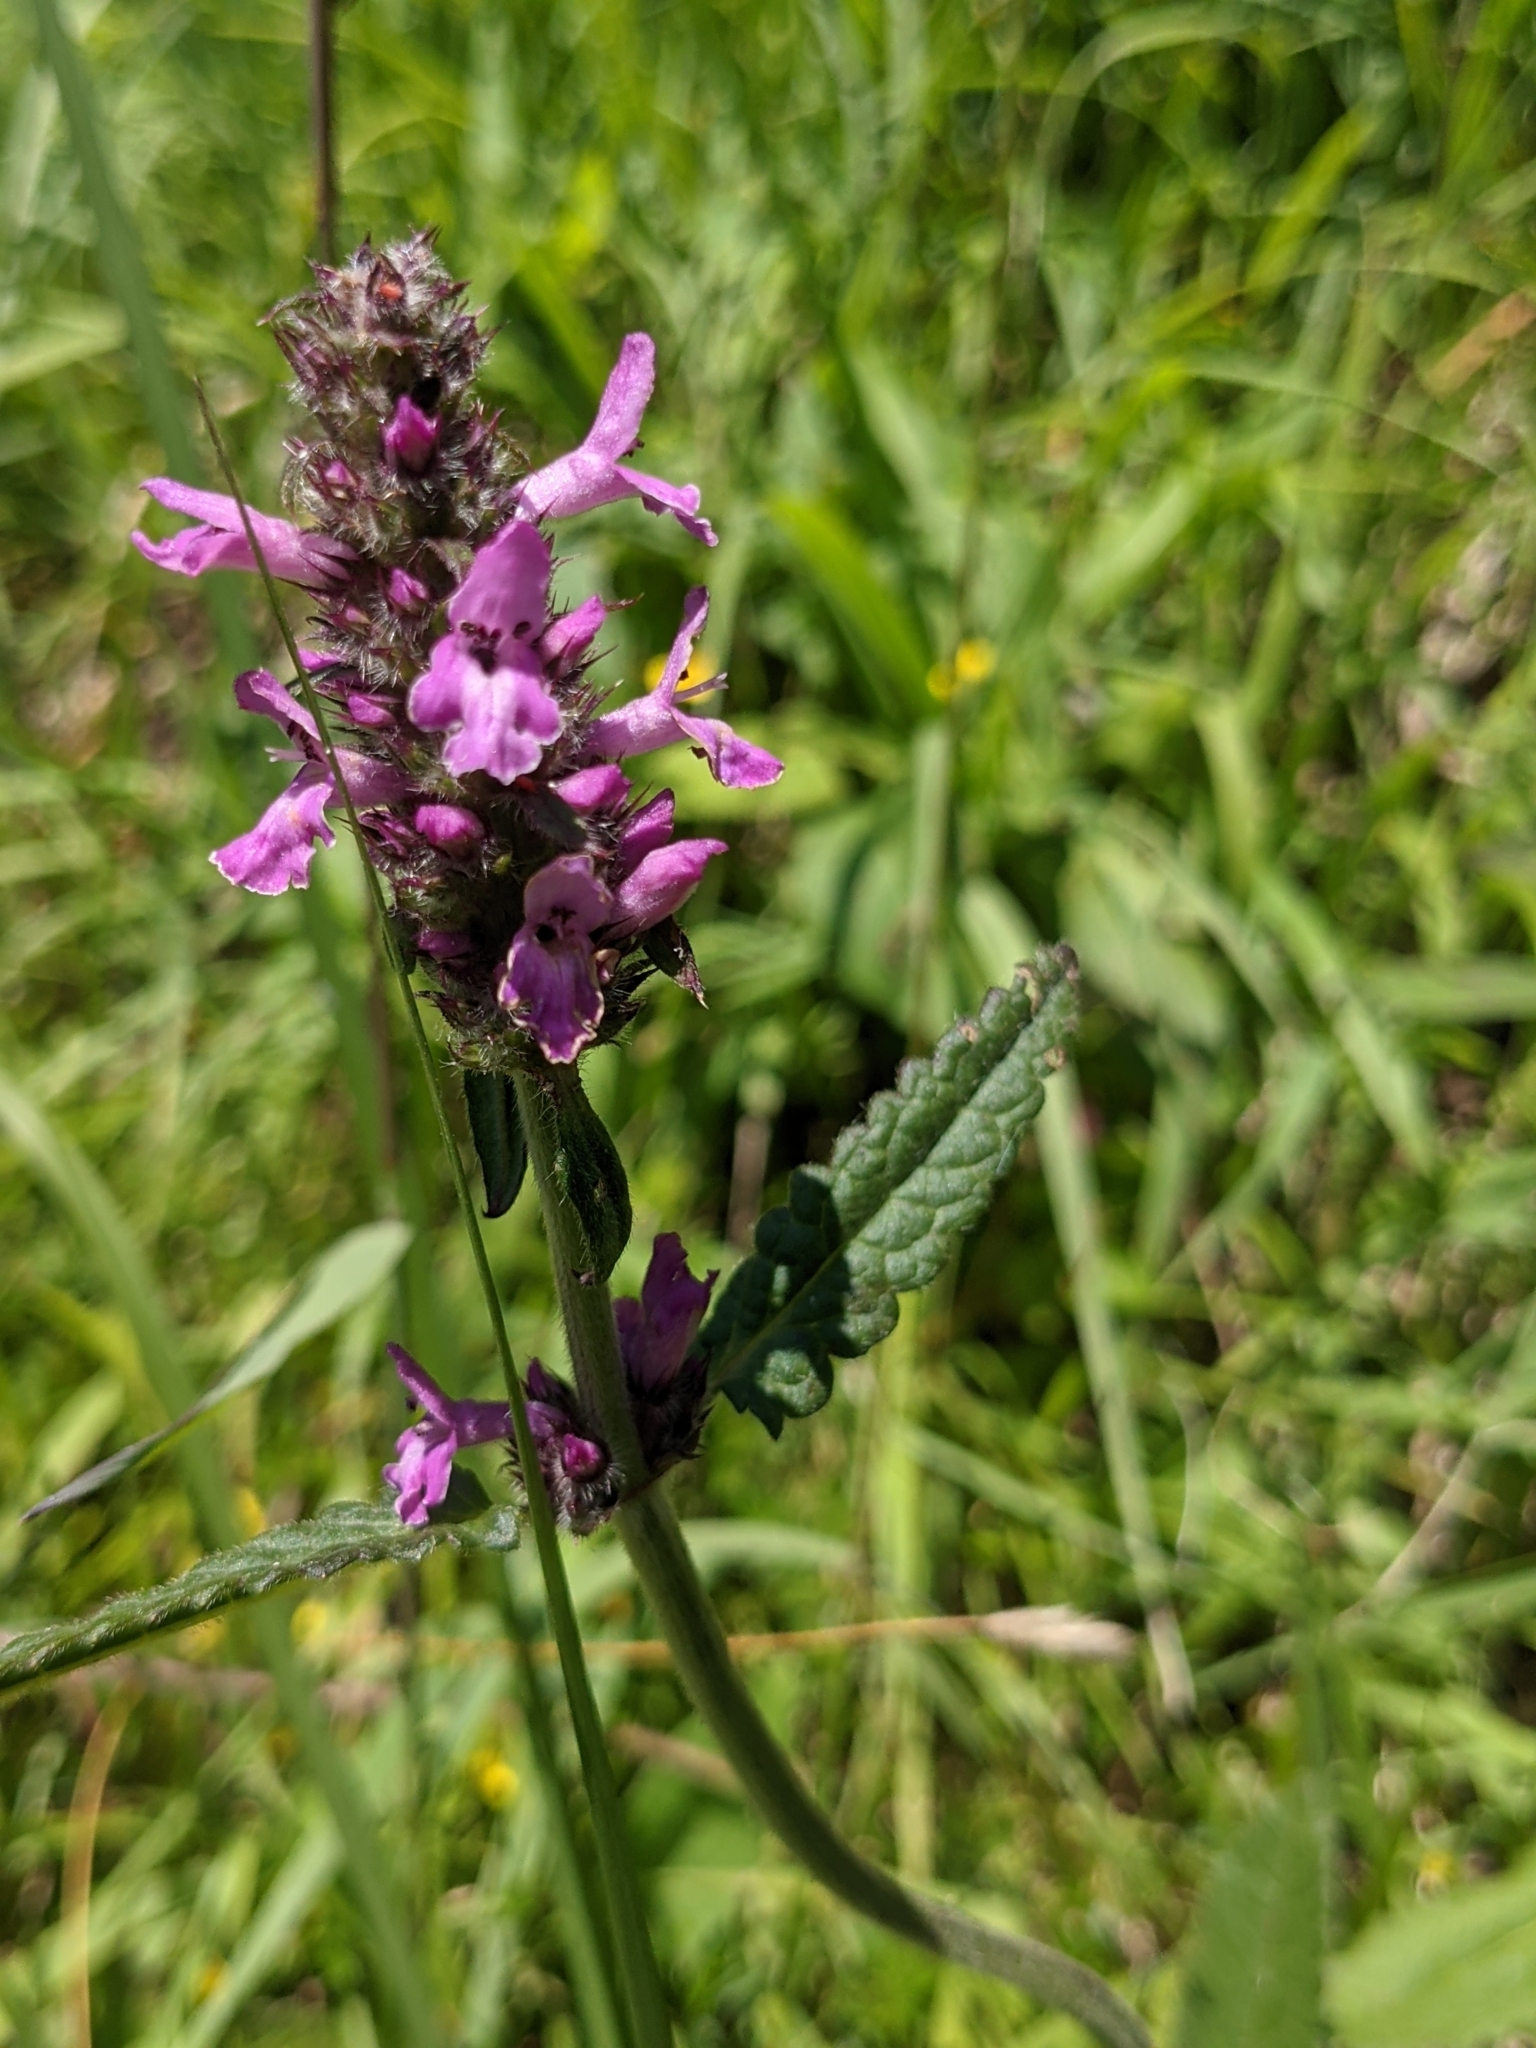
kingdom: Plantae
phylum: Tracheophyta
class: Magnoliopsida
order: Lamiales
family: Lamiaceae
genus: Betonica
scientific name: Betonica officinalis
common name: Bishop's-wort
